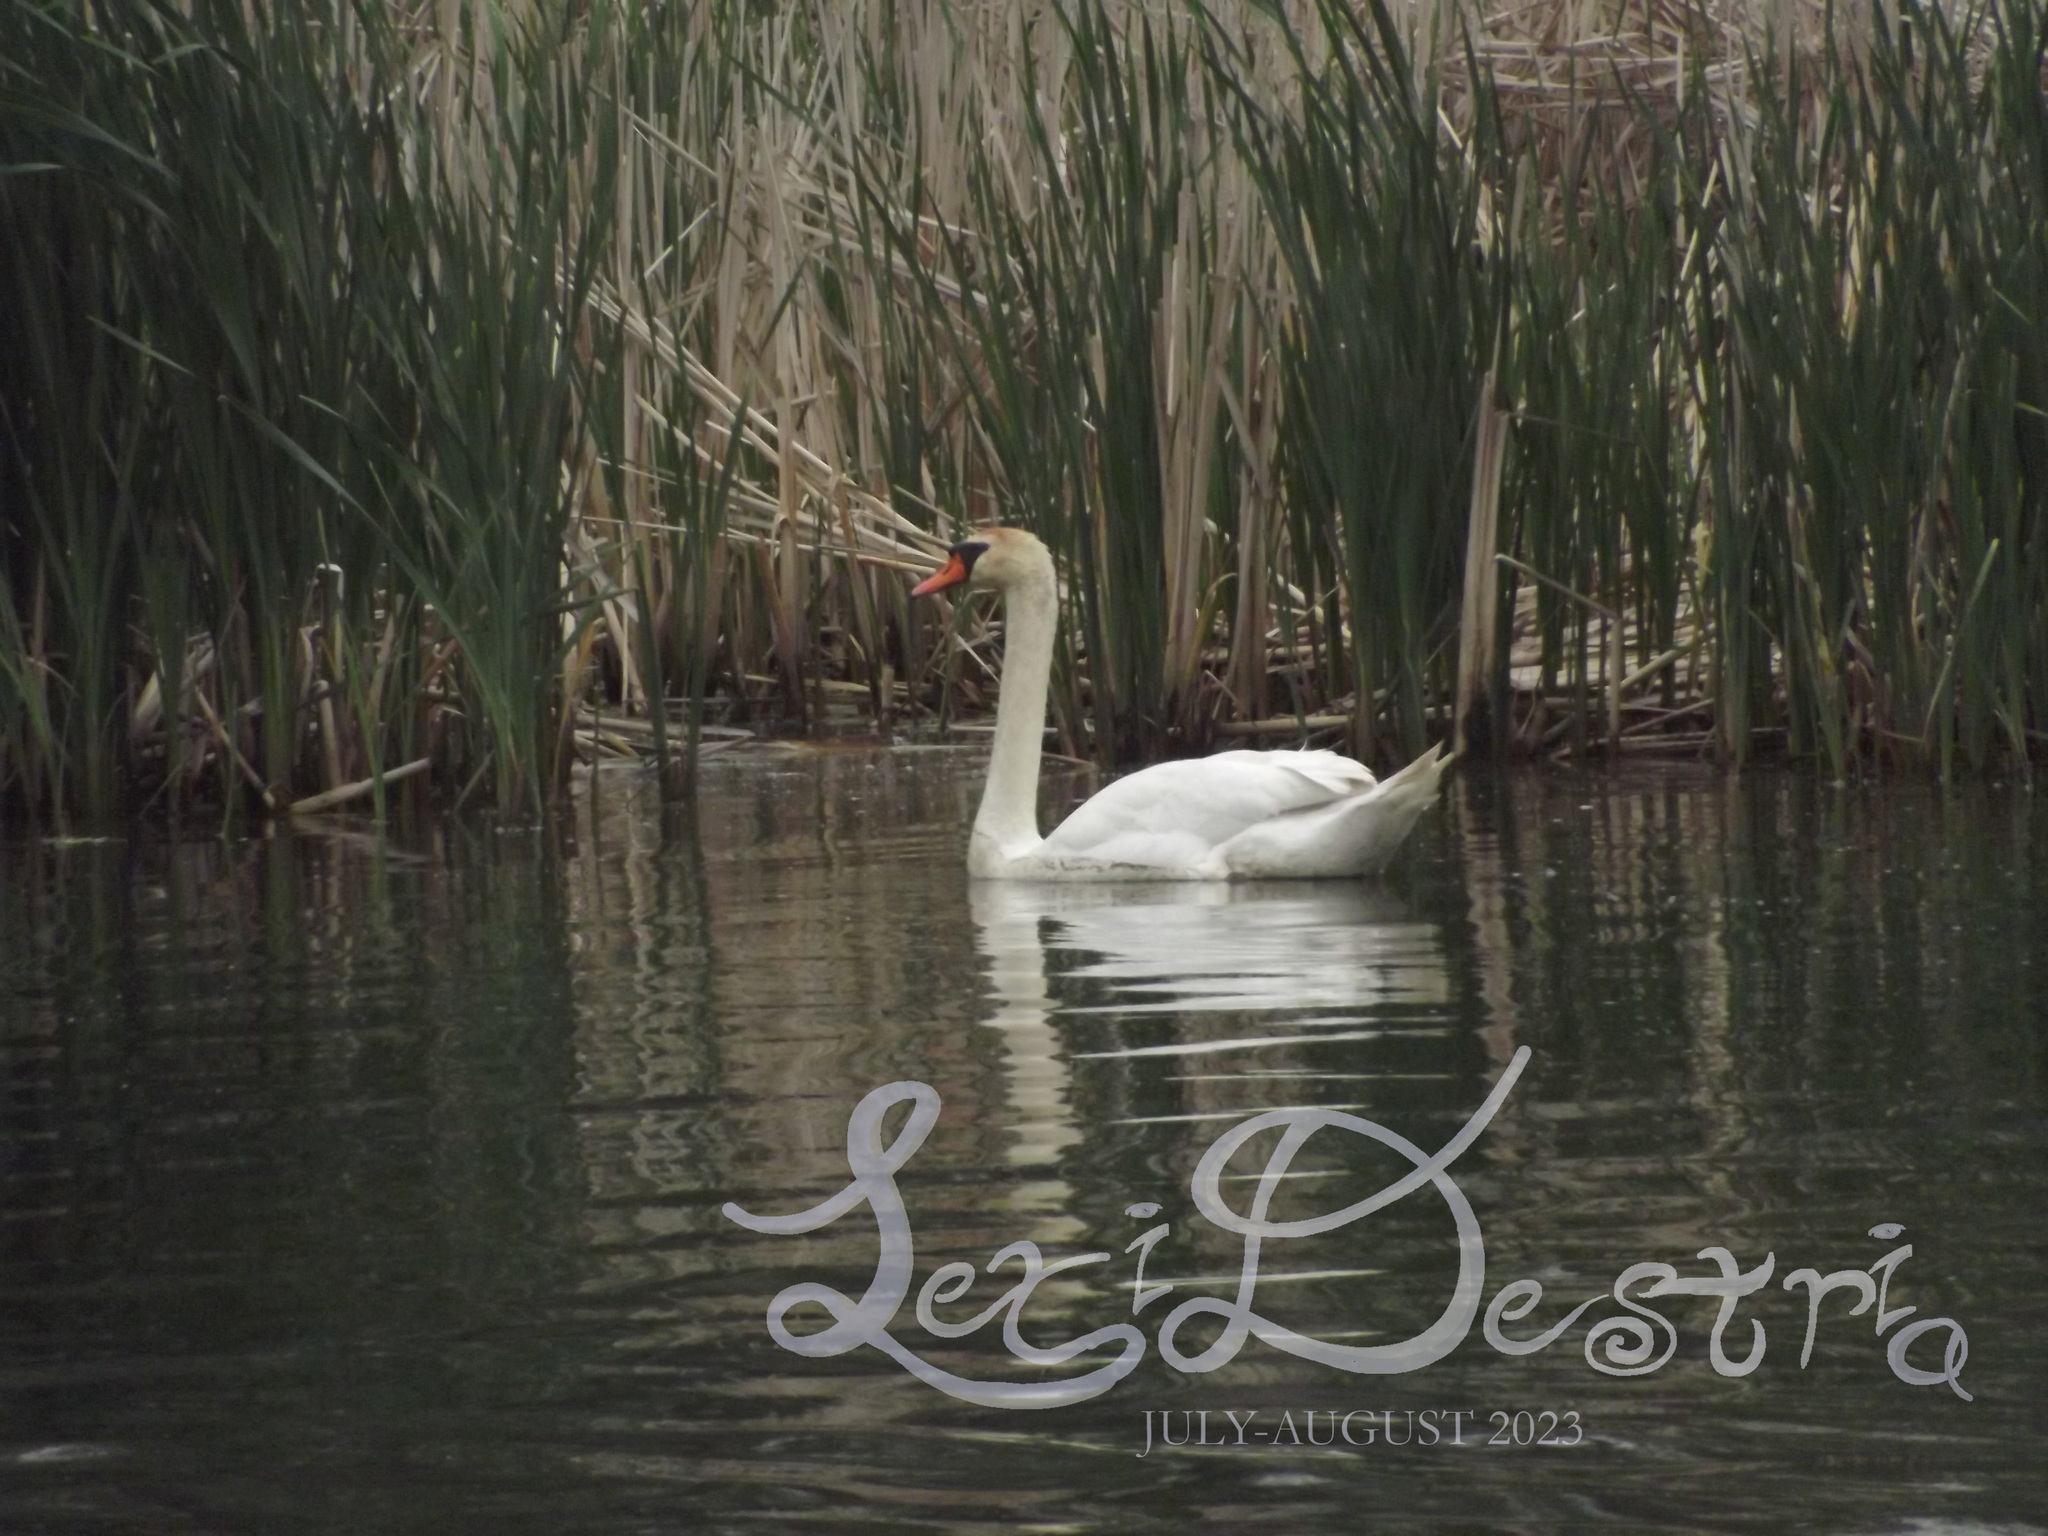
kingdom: Animalia
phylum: Chordata
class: Aves
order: Anseriformes
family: Anatidae
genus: Cygnus
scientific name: Cygnus olor
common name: Mute swan
